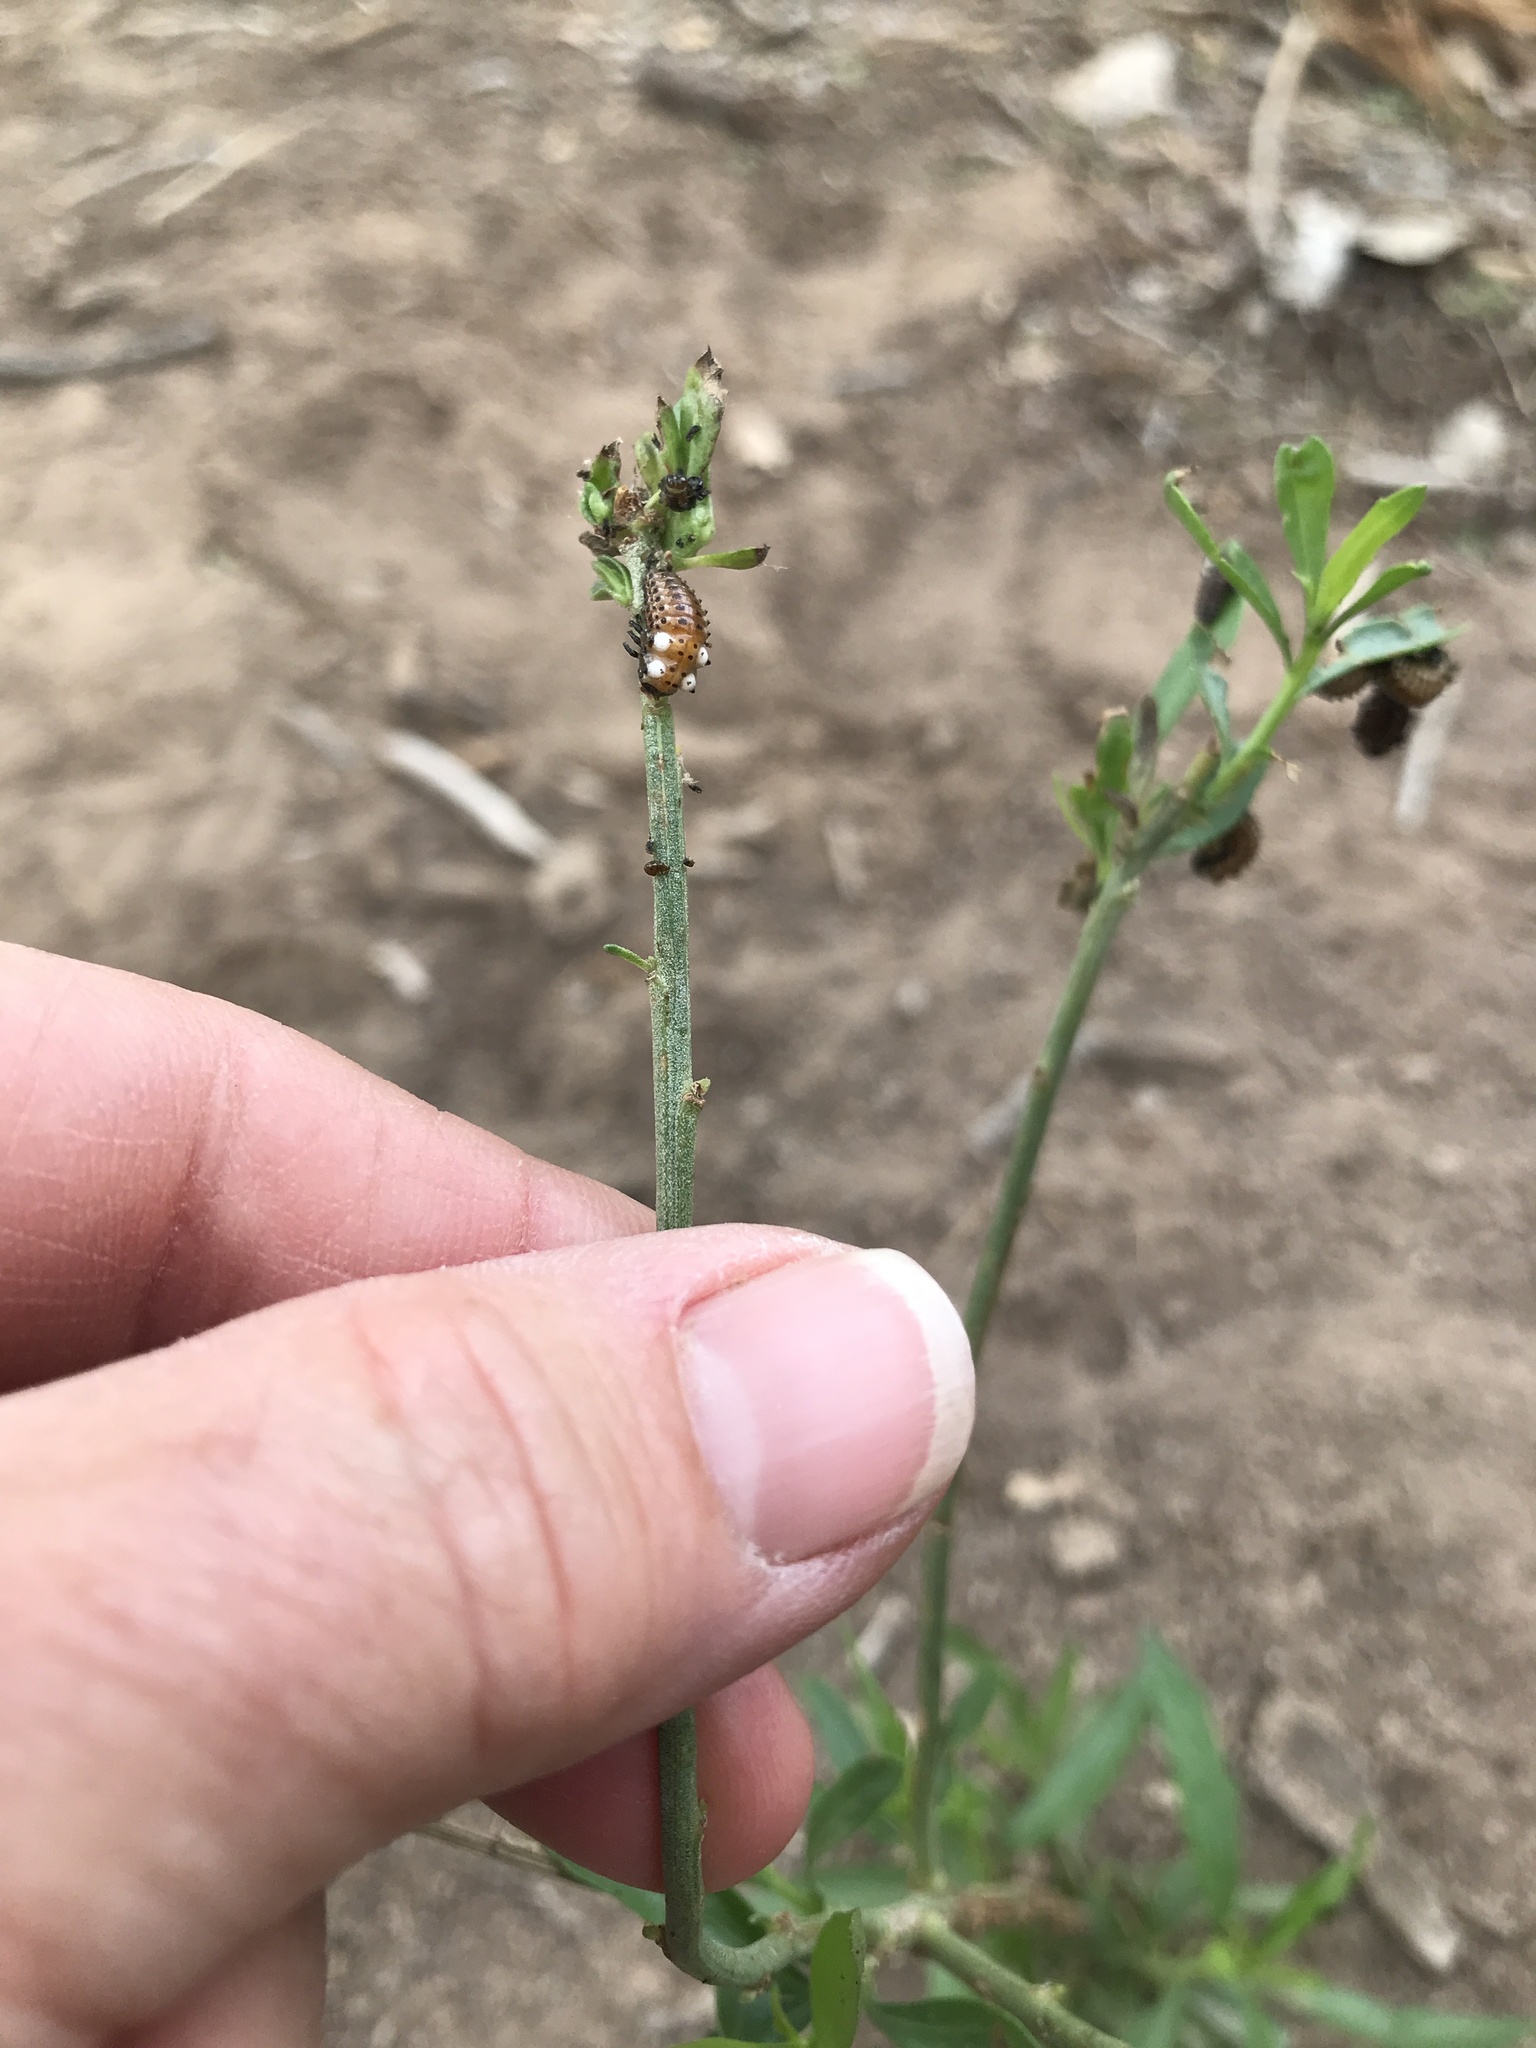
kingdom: Animalia
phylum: Arthropoda
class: Insecta
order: Coleoptera
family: Chrysomelidae
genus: Aethiopocassis
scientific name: Aethiopocassis scripta
